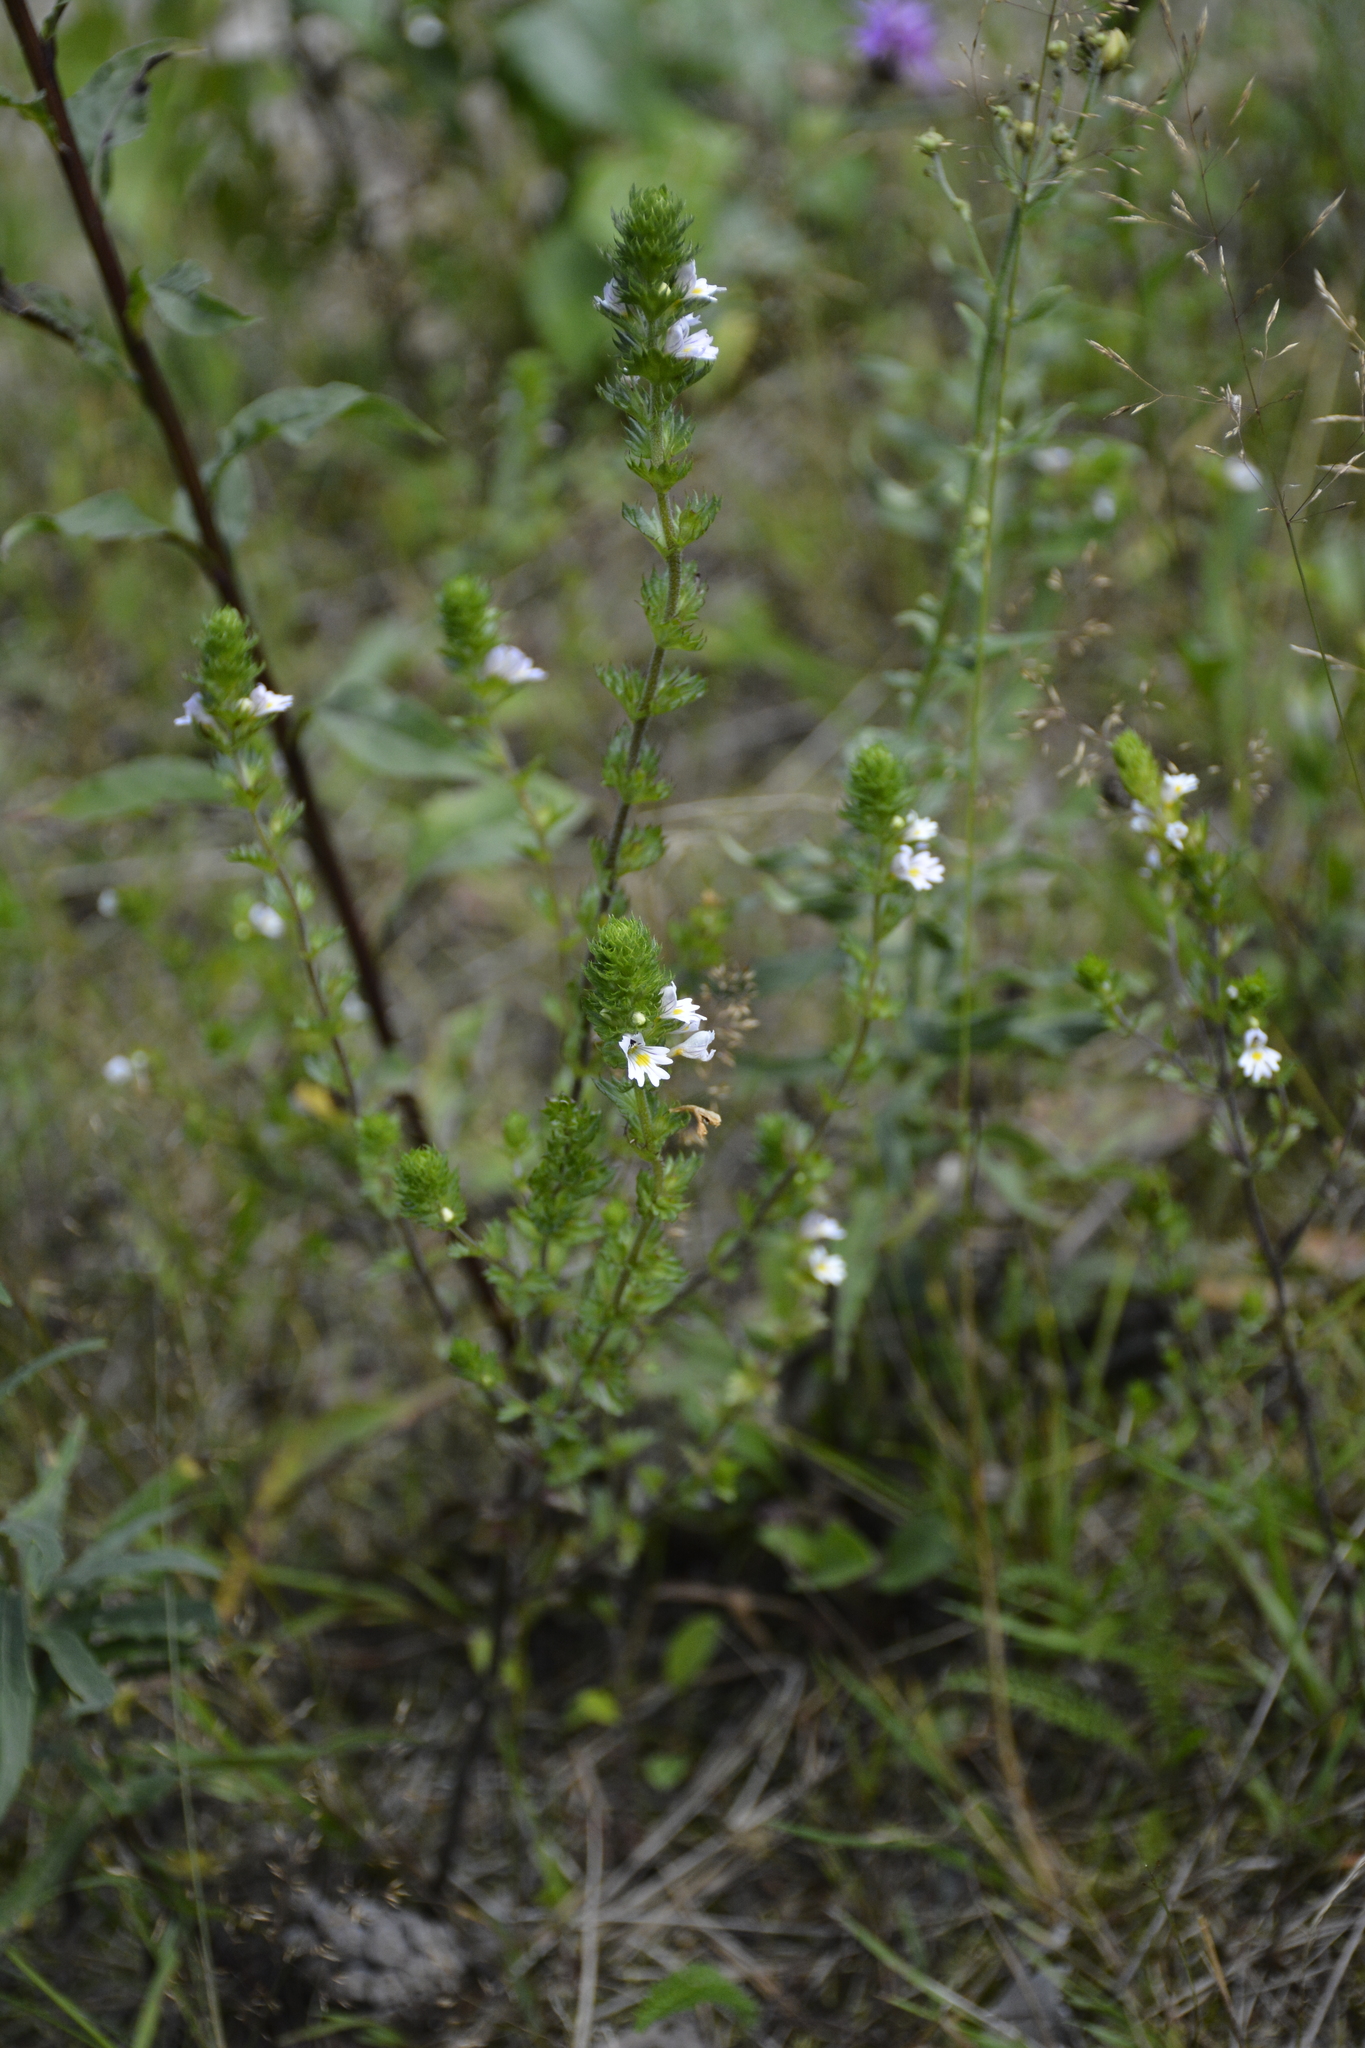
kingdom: Plantae
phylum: Tracheophyta
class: Magnoliopsida
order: Lamiales
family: Orobanchaceae
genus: Euphrasia
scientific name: Euphrasia stricta
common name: Drug eyebright
